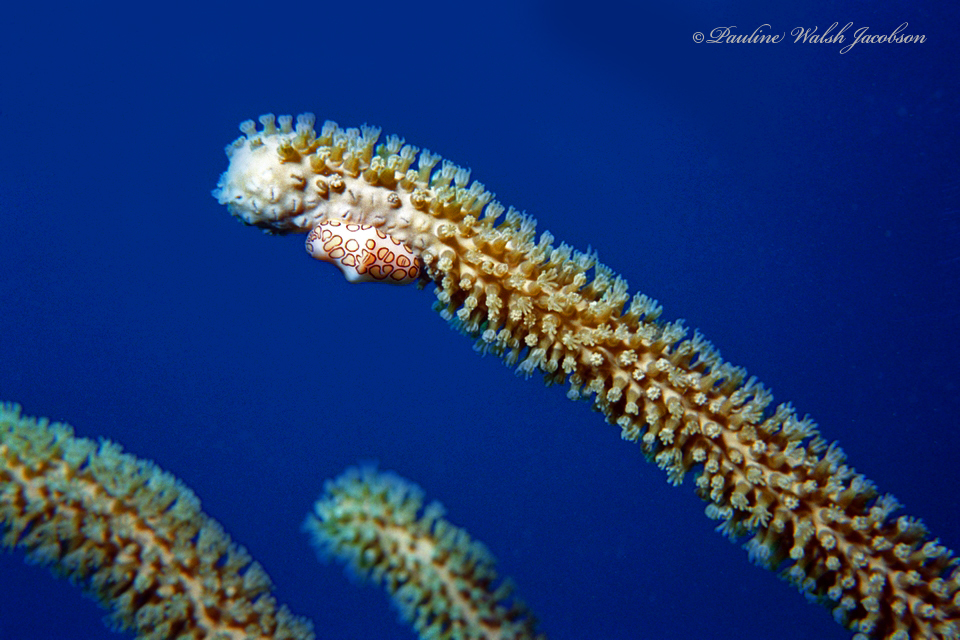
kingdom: Animalia
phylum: Mollusca
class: Gastropoda
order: Littorinimorpha
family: Ovulidae
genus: Cyphoma
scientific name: Cyphoma gibbosum
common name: Flamingo tongue
